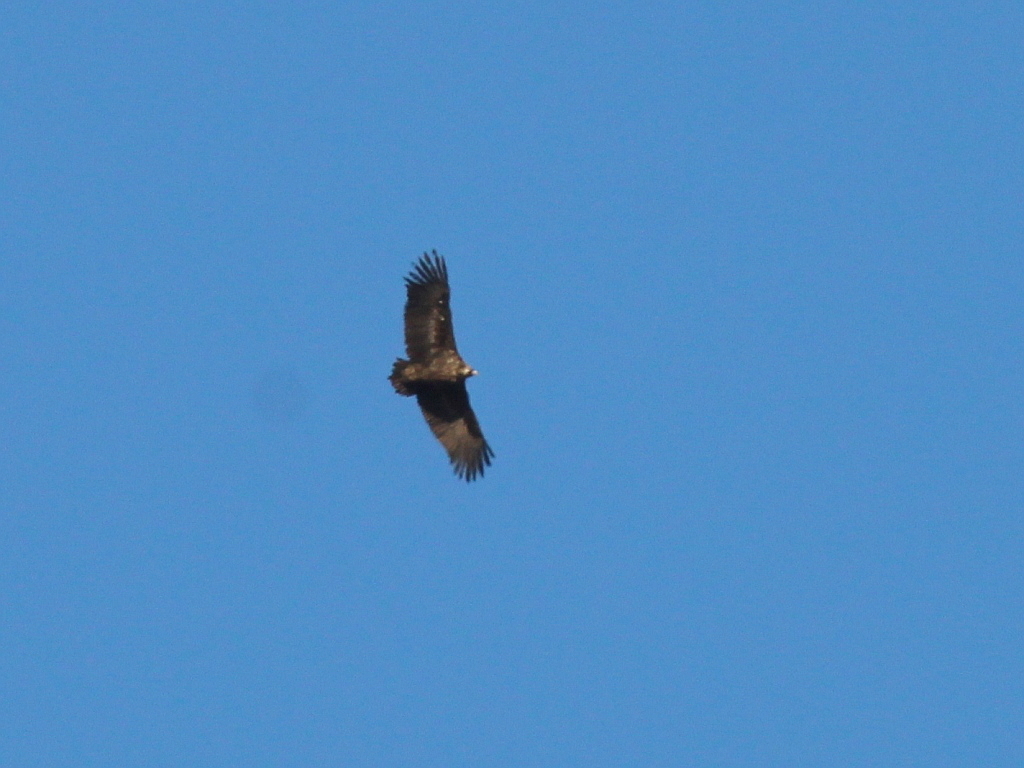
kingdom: Animalia
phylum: Chordata
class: Aves
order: Accipitriformes
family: Accipitridae
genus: Aegypius
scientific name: Aegypius monachus
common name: Cinereous vulture
